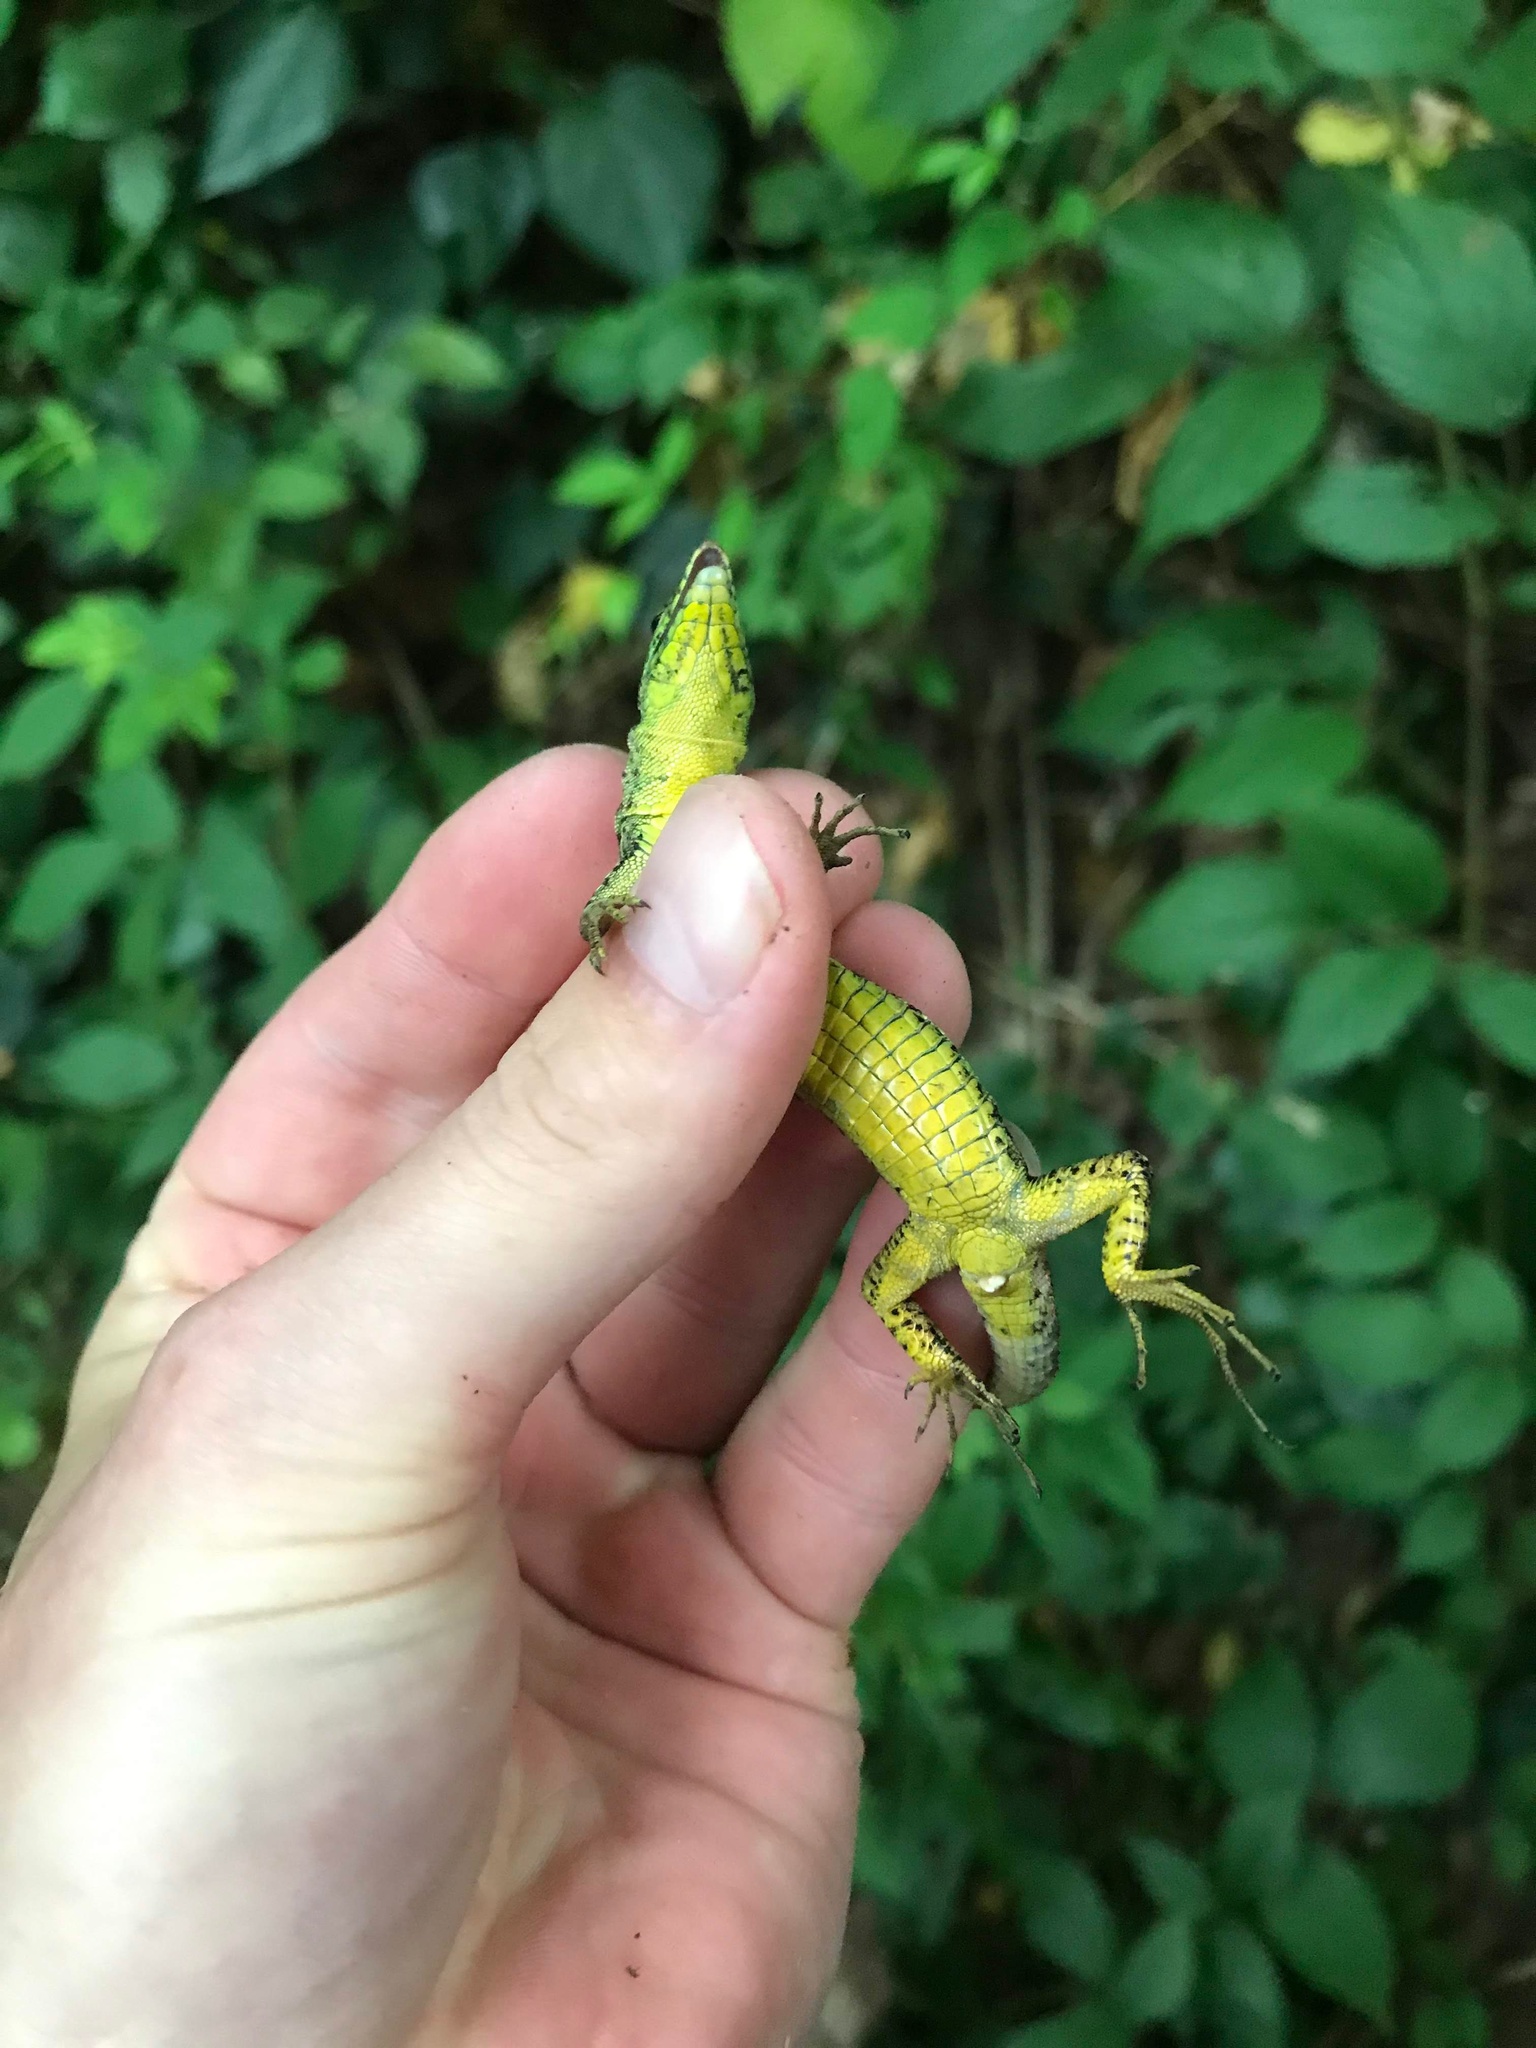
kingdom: Animalia
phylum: Chordata
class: Squamata
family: Lacertidae
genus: Darevskia
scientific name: Darevskia brauneri
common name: Brauner's rock lizard
